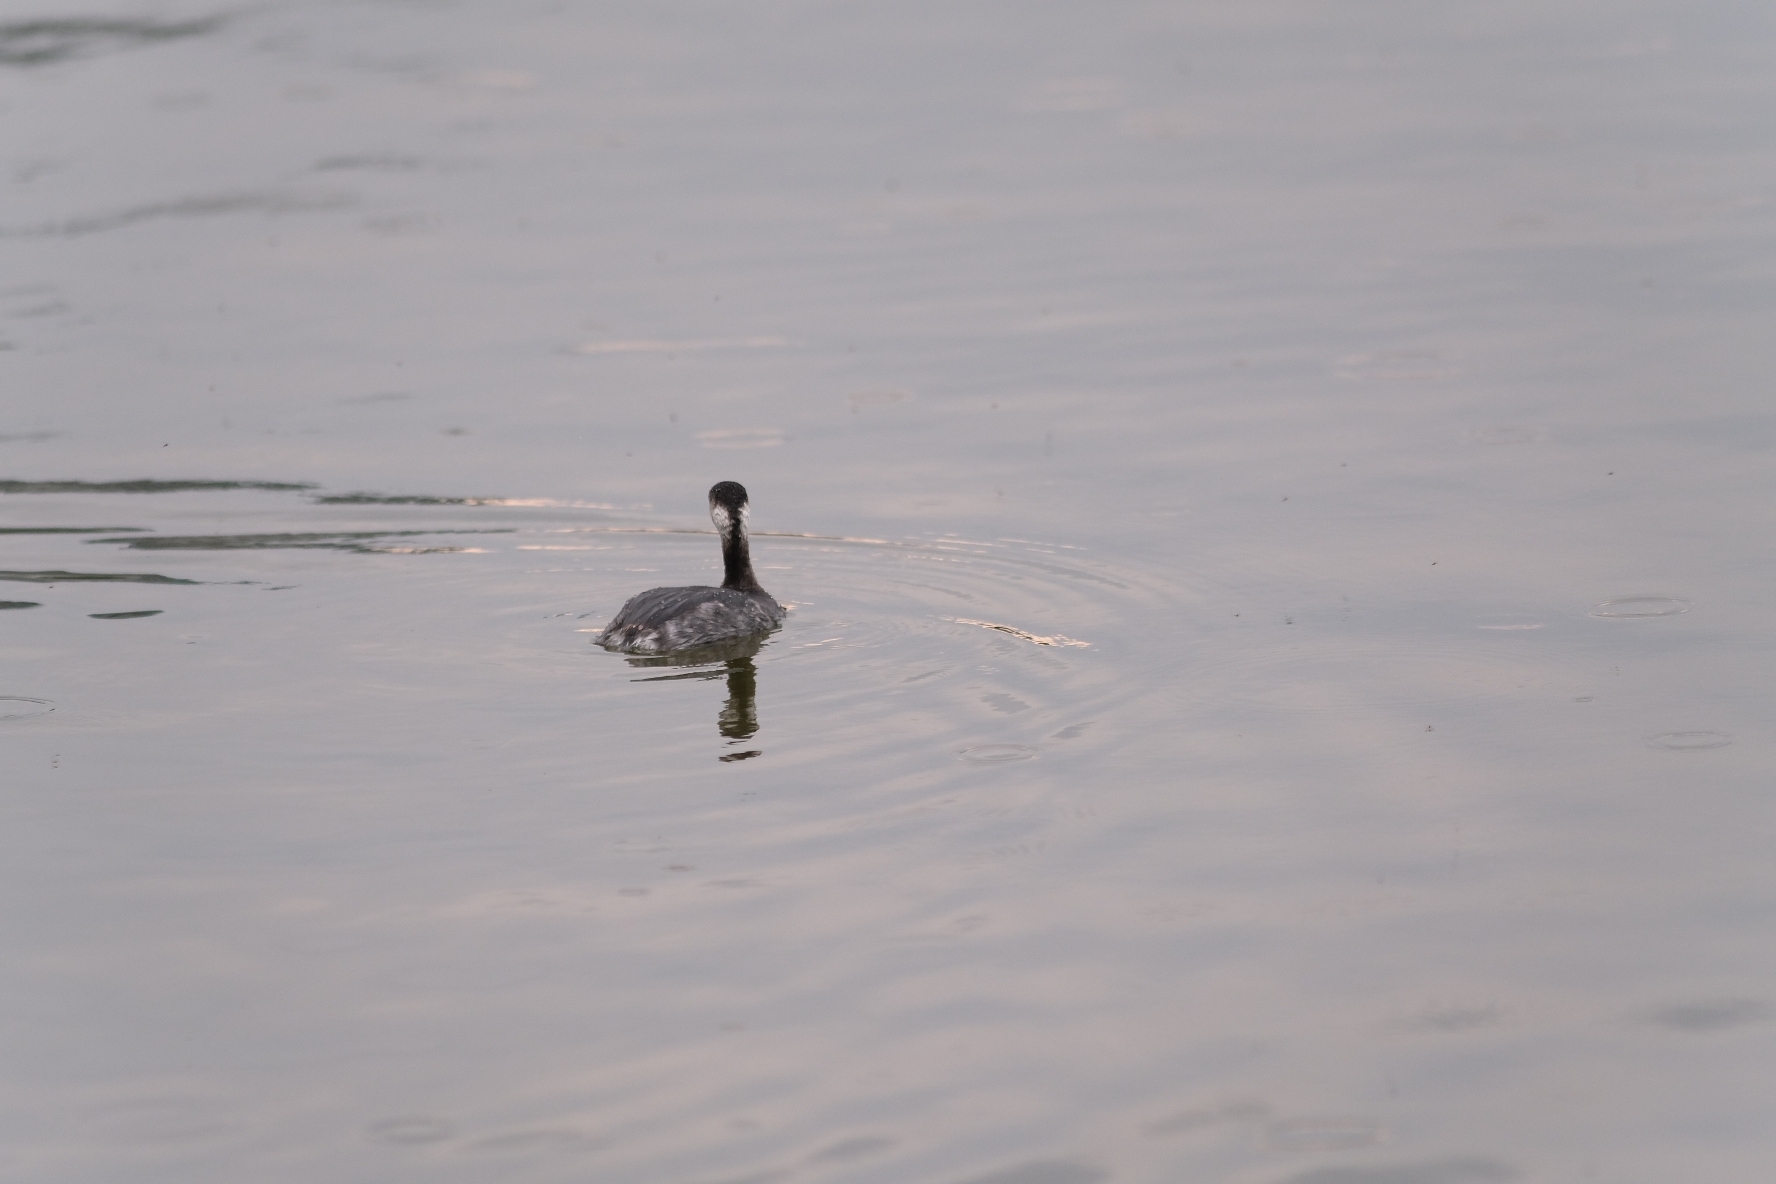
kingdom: Animalia
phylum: Chordata
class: Aves
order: Podicipediformes
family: Podicipedidae
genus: Podiceps
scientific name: Podiceps nigricollis
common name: Black-necked grebe
